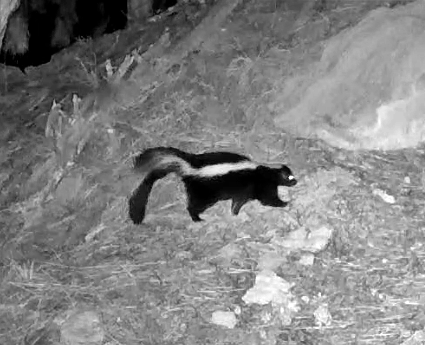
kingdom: Animalia
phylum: Chordata
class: Mammalia
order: Carnivora
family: Mephitidae
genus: Mephitis
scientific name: Mephitis mephitis
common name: Striped skunk
